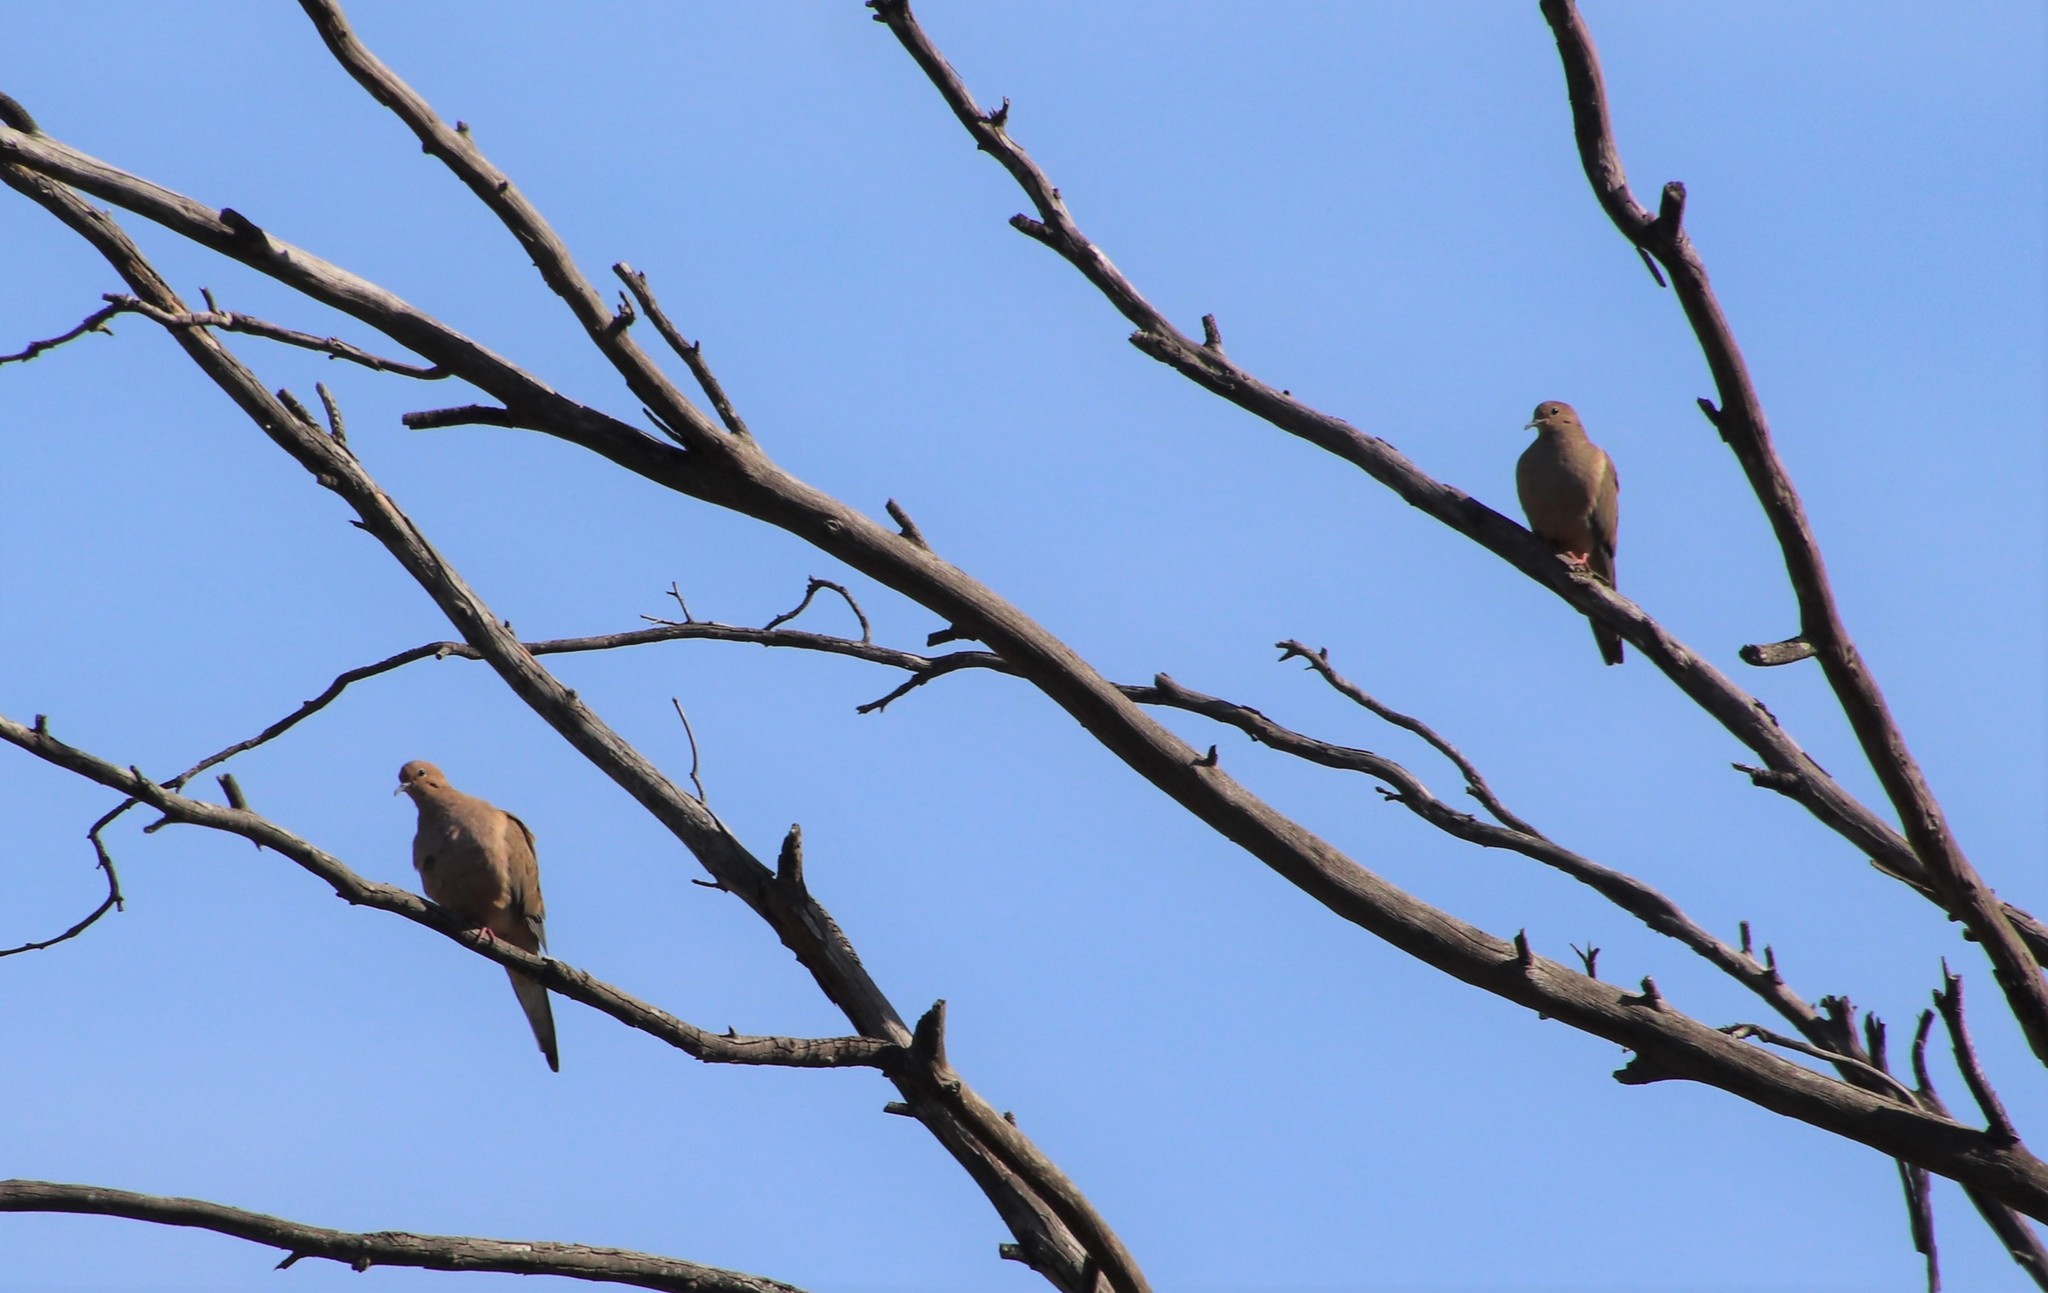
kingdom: Animalia
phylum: Chordata
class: Aves
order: Columbiformes
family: Columbidae
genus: Zenaida
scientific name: Zenaida macroura
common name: Mourning dove
